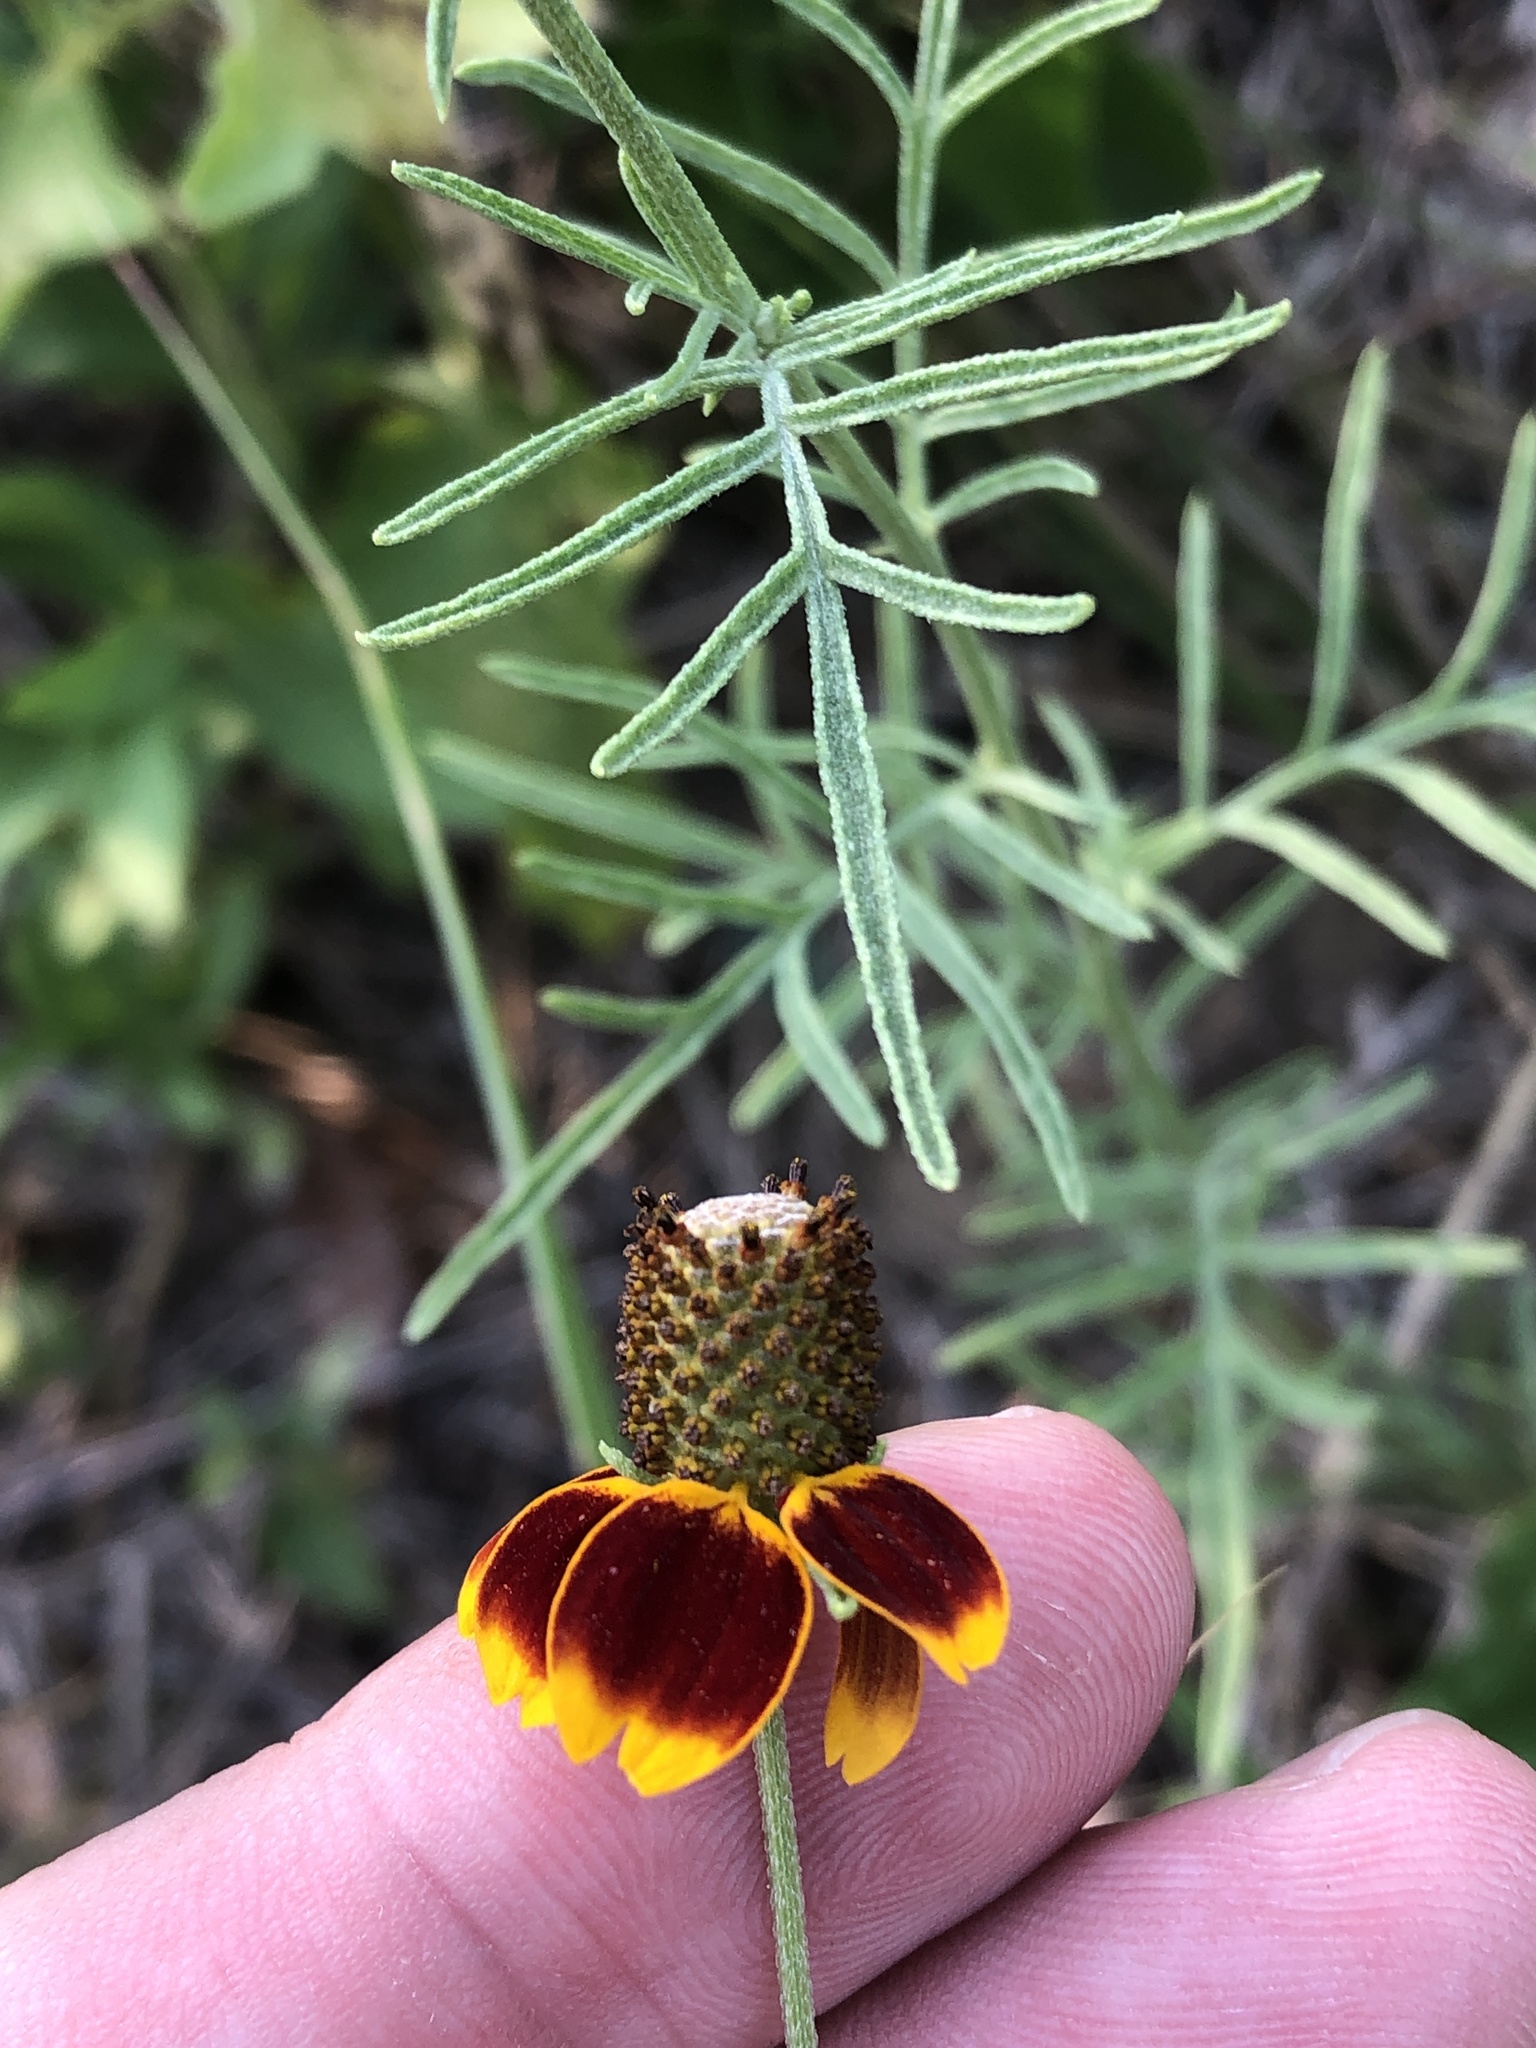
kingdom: Plantae
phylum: Tracheophyta
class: Magnoliopsida
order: Asterales
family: Asteraceae
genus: Ratibida
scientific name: Ratibida columnifera
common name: Prairie coneflower
